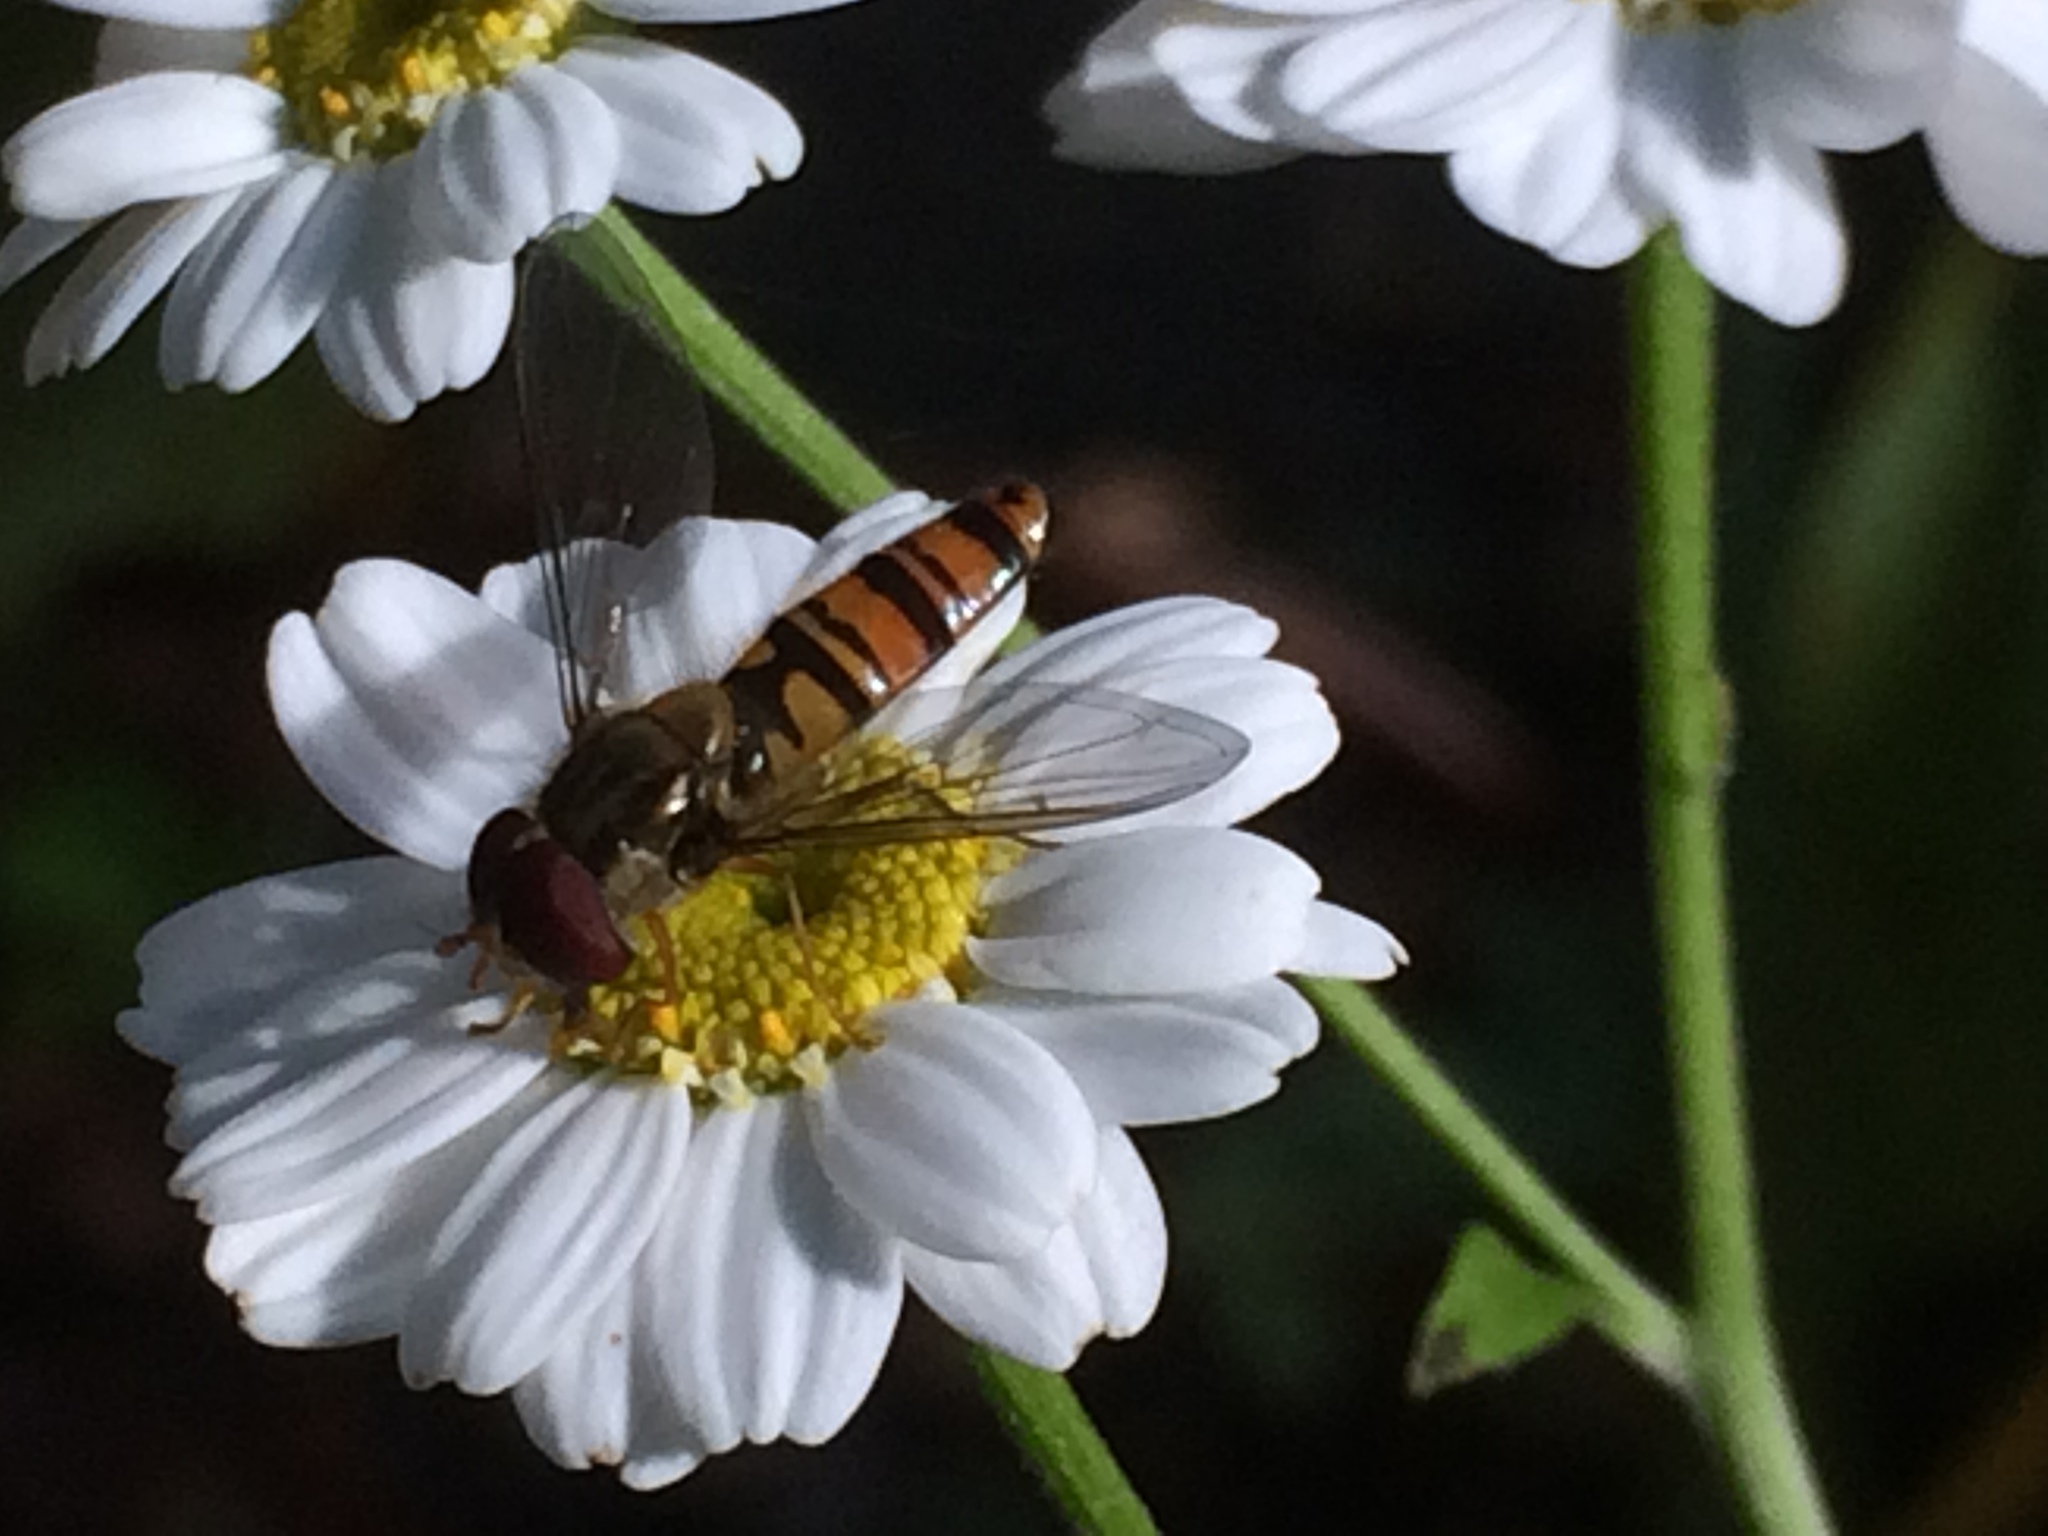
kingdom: Animalia
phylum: Arthropoda
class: Insecta
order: Diptera
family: Syrphidae
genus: Episyrphus
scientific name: Episyrphus balteatus
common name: Marmalade hoverfly
